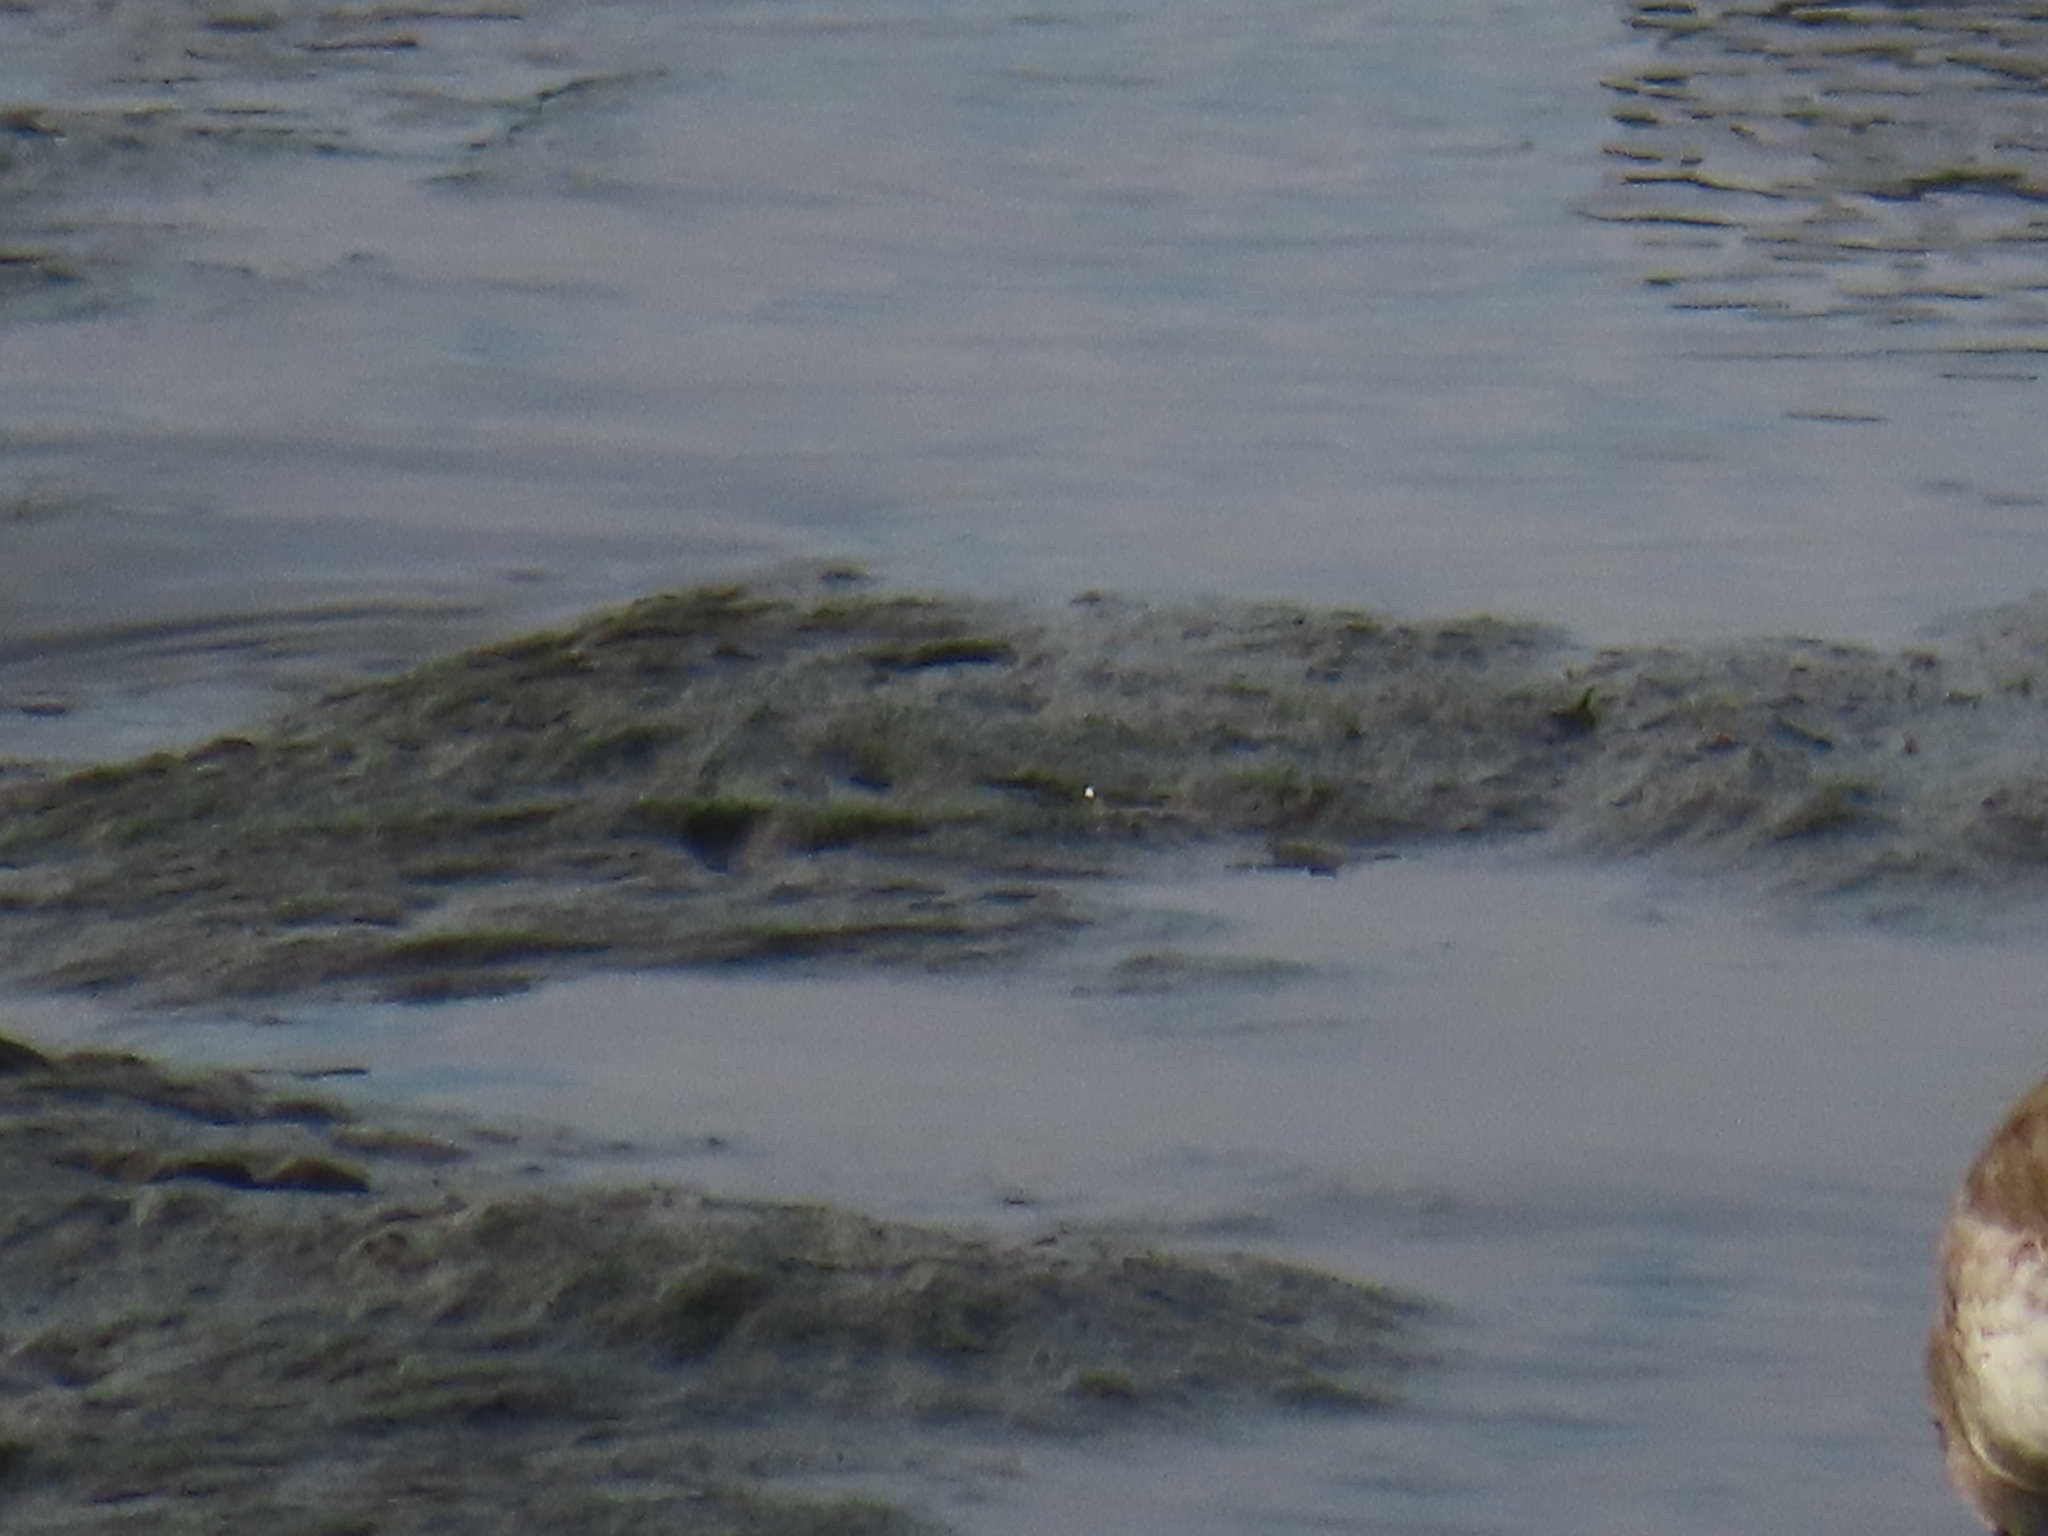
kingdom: Animalia
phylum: Chordata
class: Aves
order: Charadriiformes
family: Scolopacidae
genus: Calidris
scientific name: Calidris alpina
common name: Dunlin
